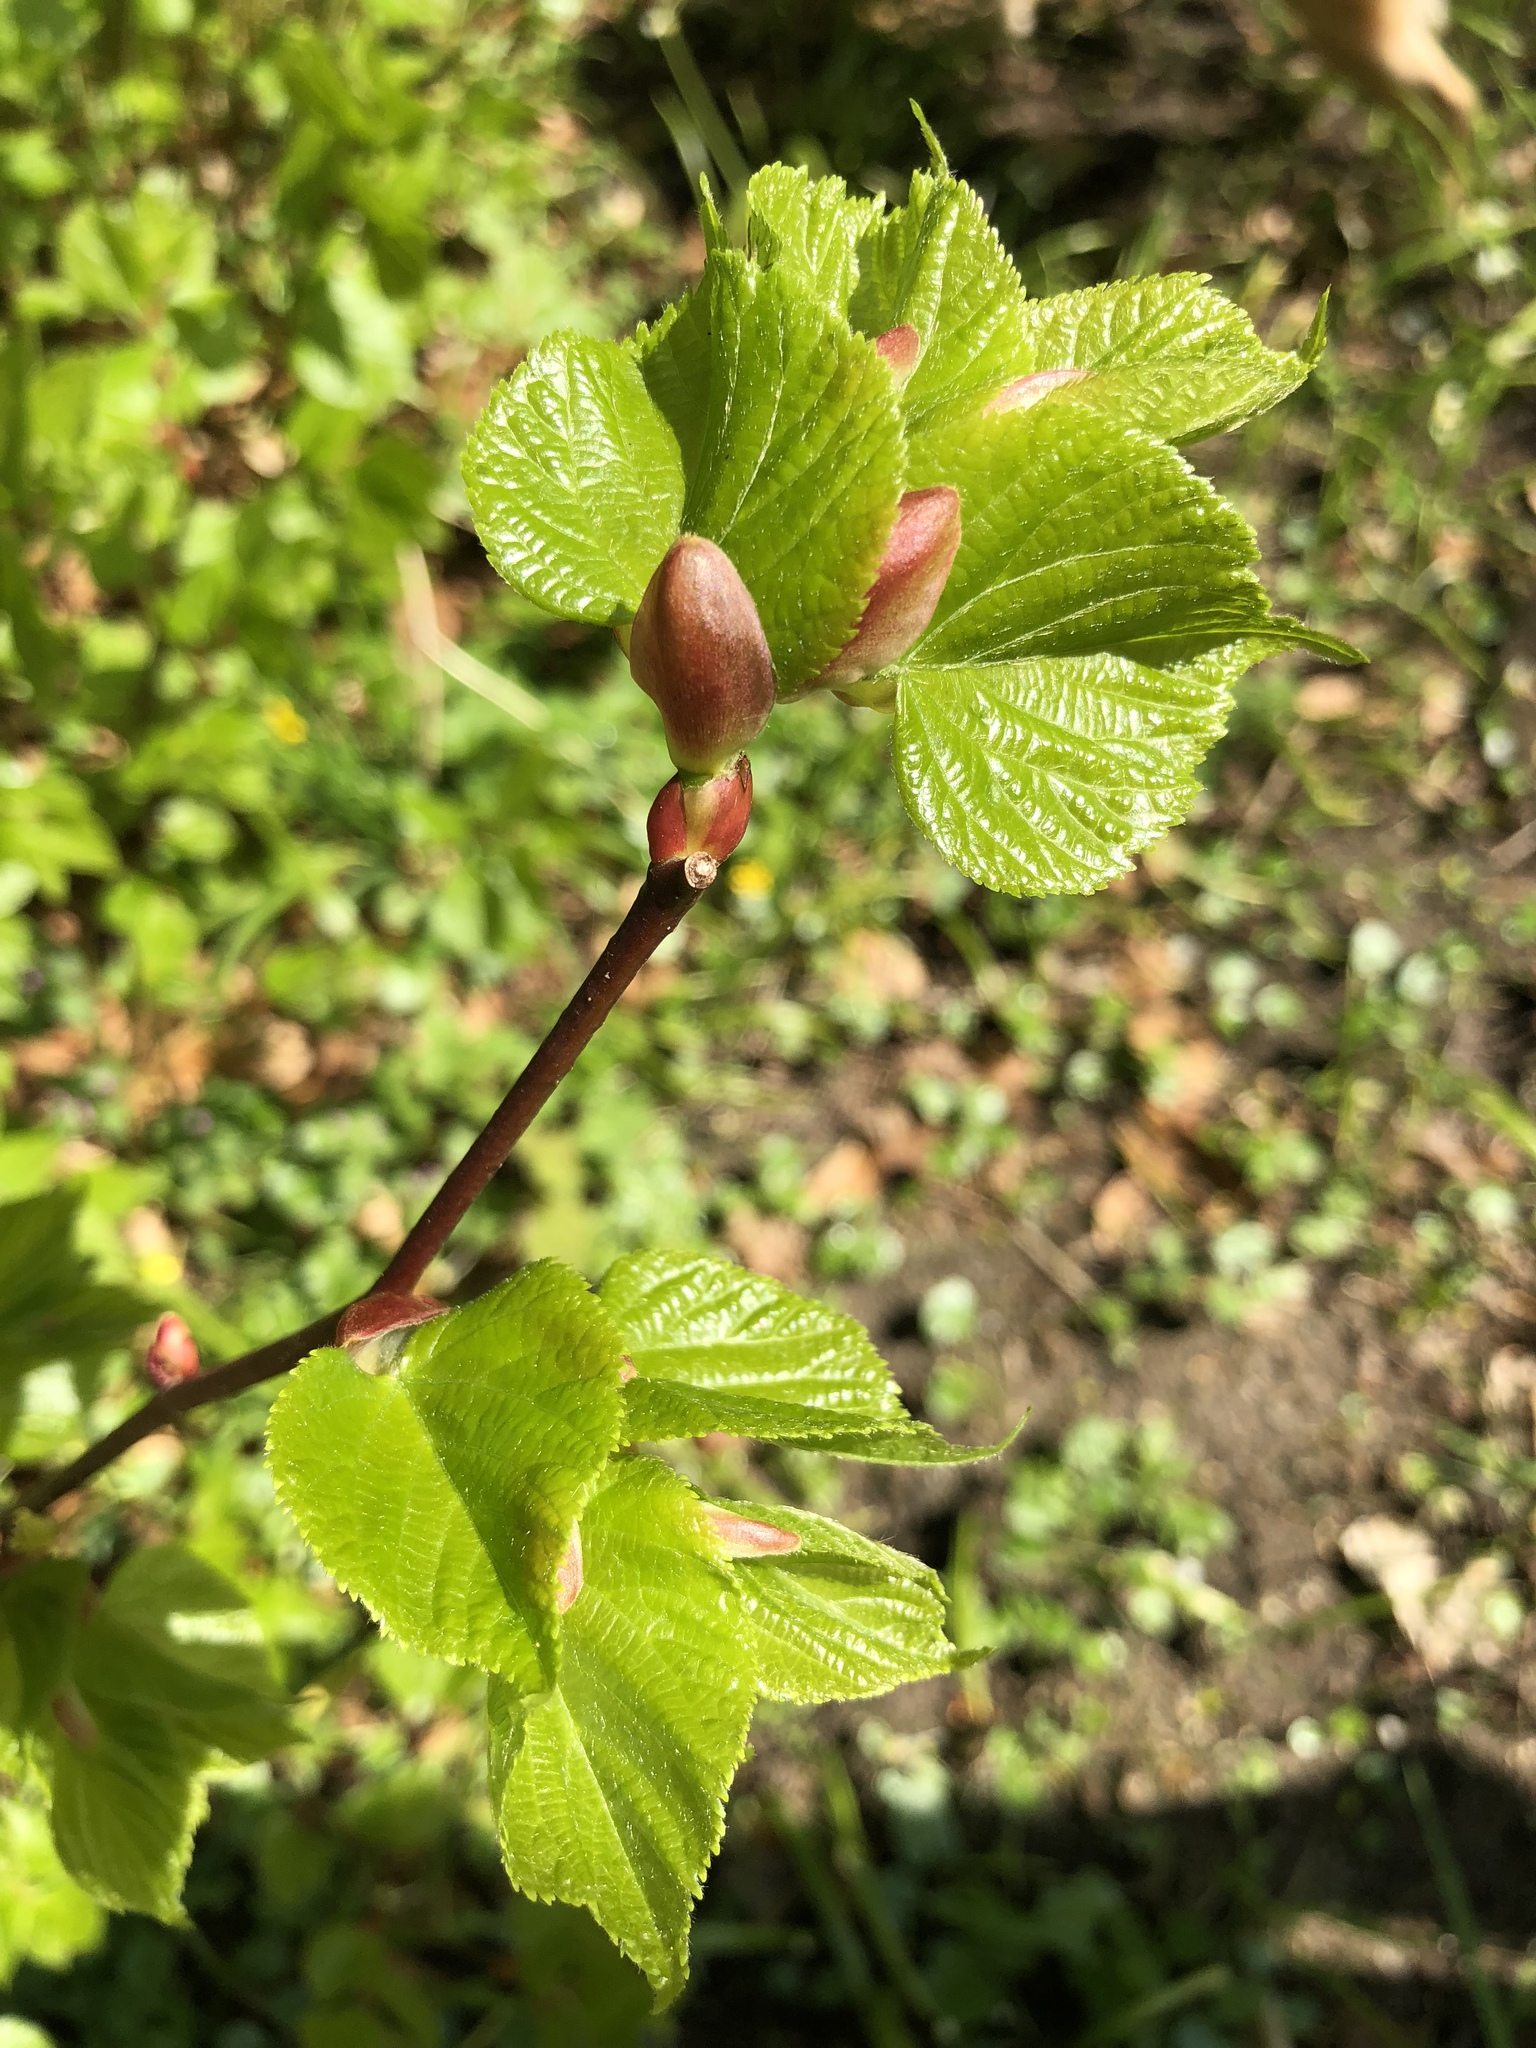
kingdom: Plantae
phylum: Tracheophyta
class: Magnoliopsida
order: Fagales
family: Betulaceae
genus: Corylus
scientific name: Corylus avellana
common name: European hazel
